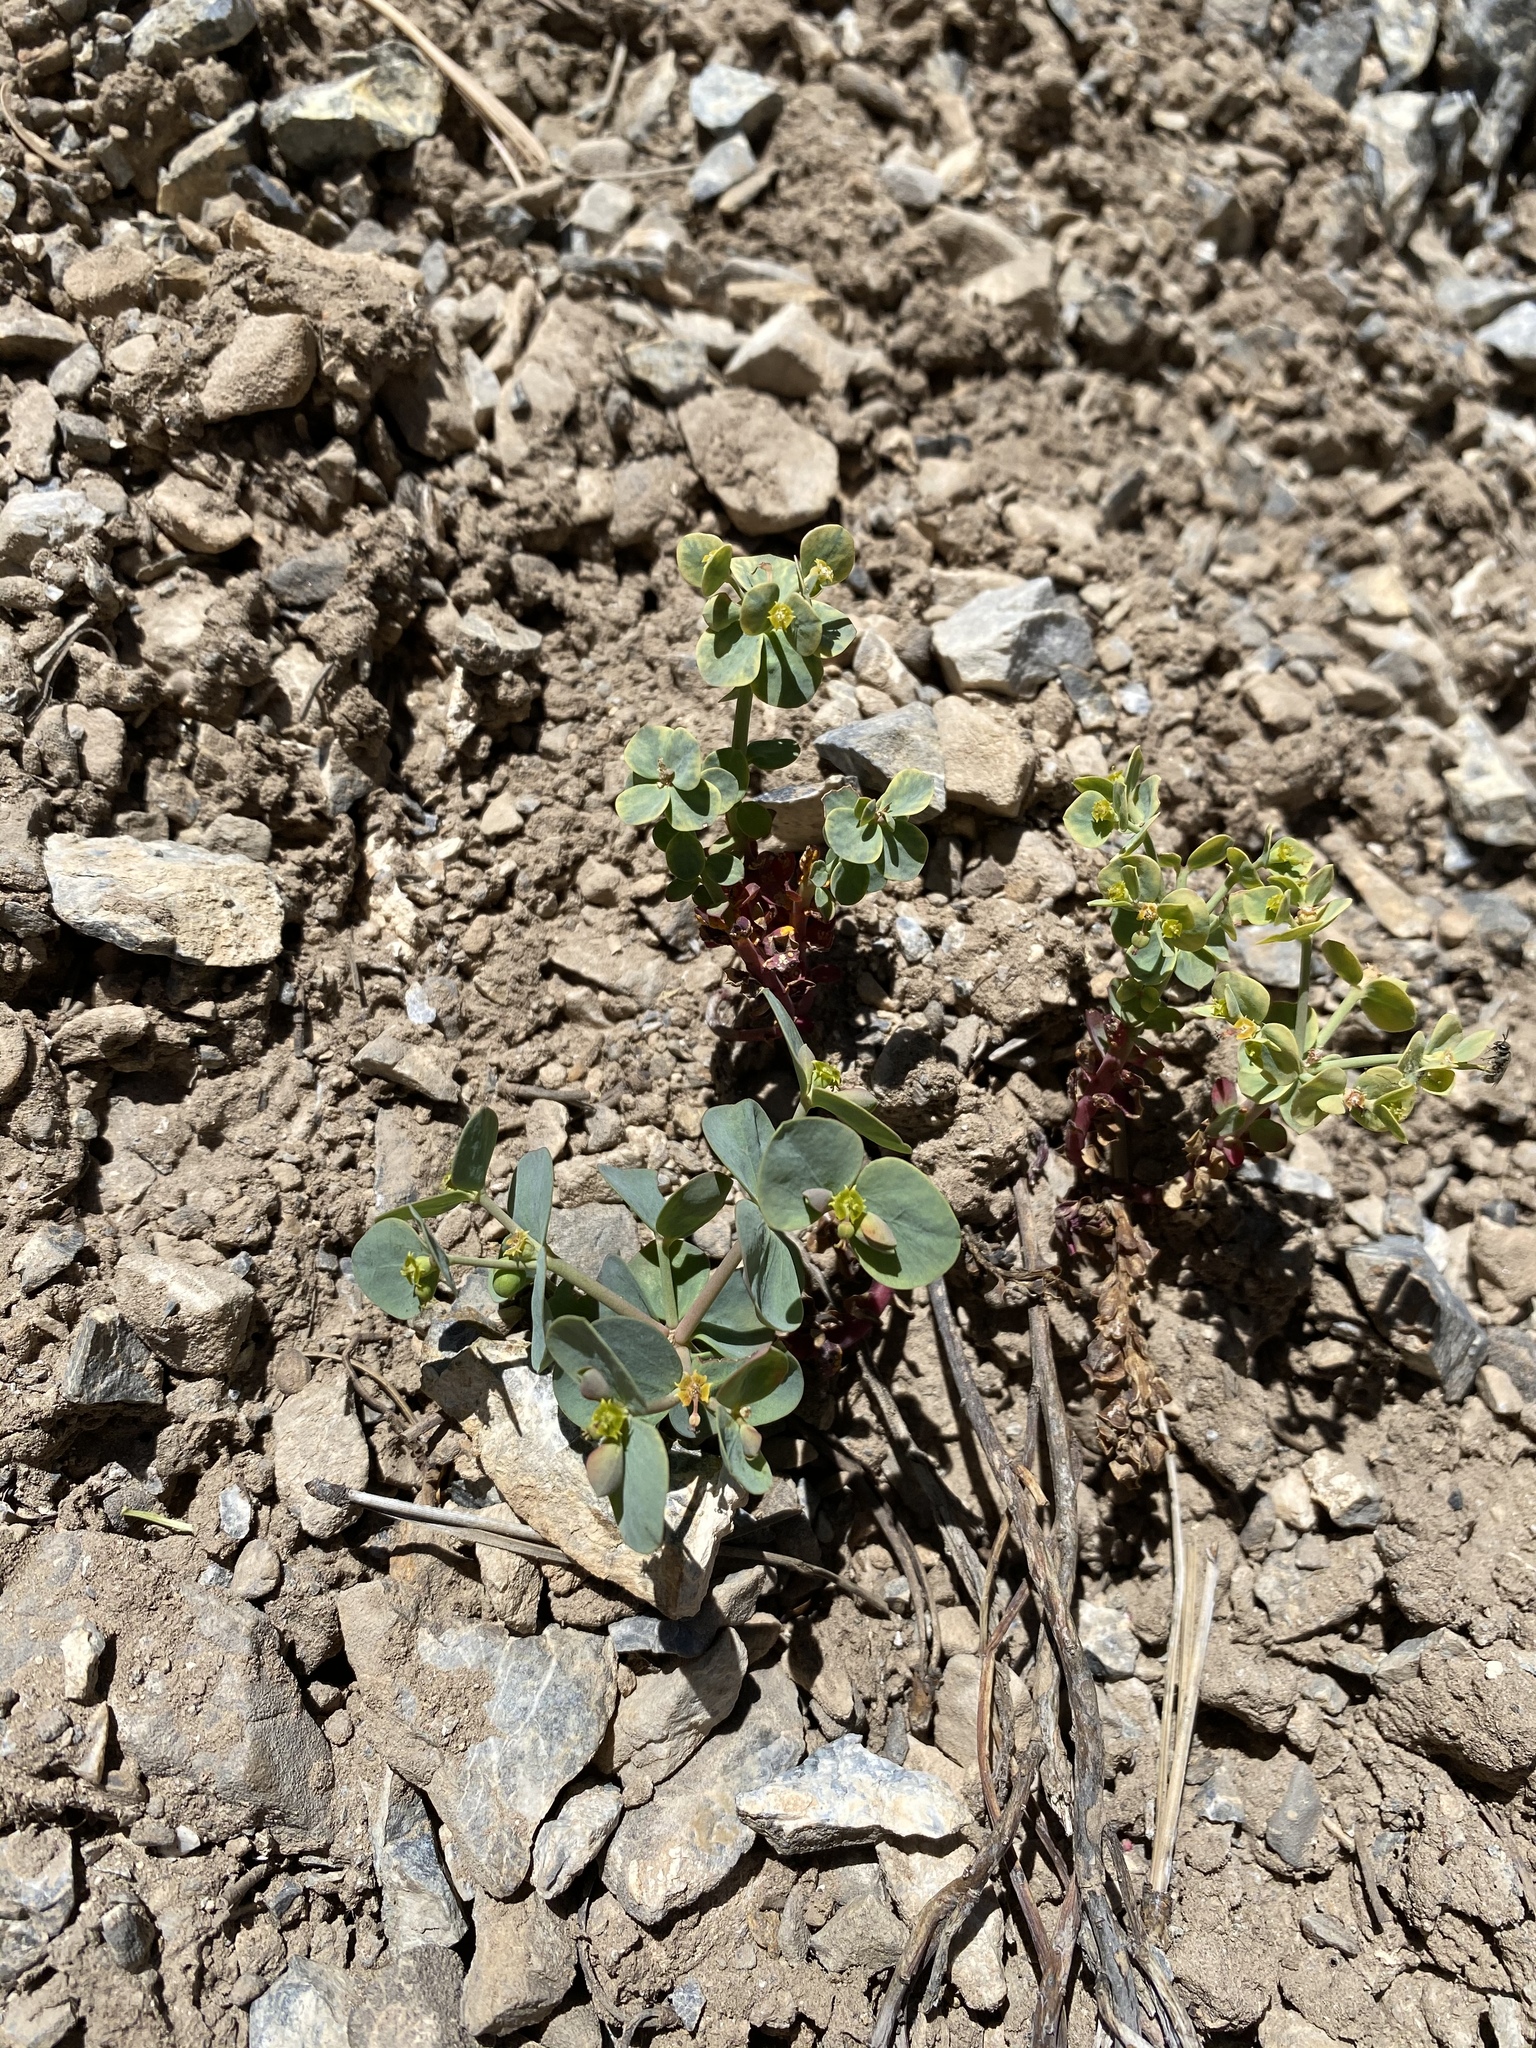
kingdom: Plantae
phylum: Tracheophyta
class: Magnoliopsida
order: Malpighiales
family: Euphorbiaceae
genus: Euphorbia
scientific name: Euphorbia brachycera
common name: Shorthorn spurge
